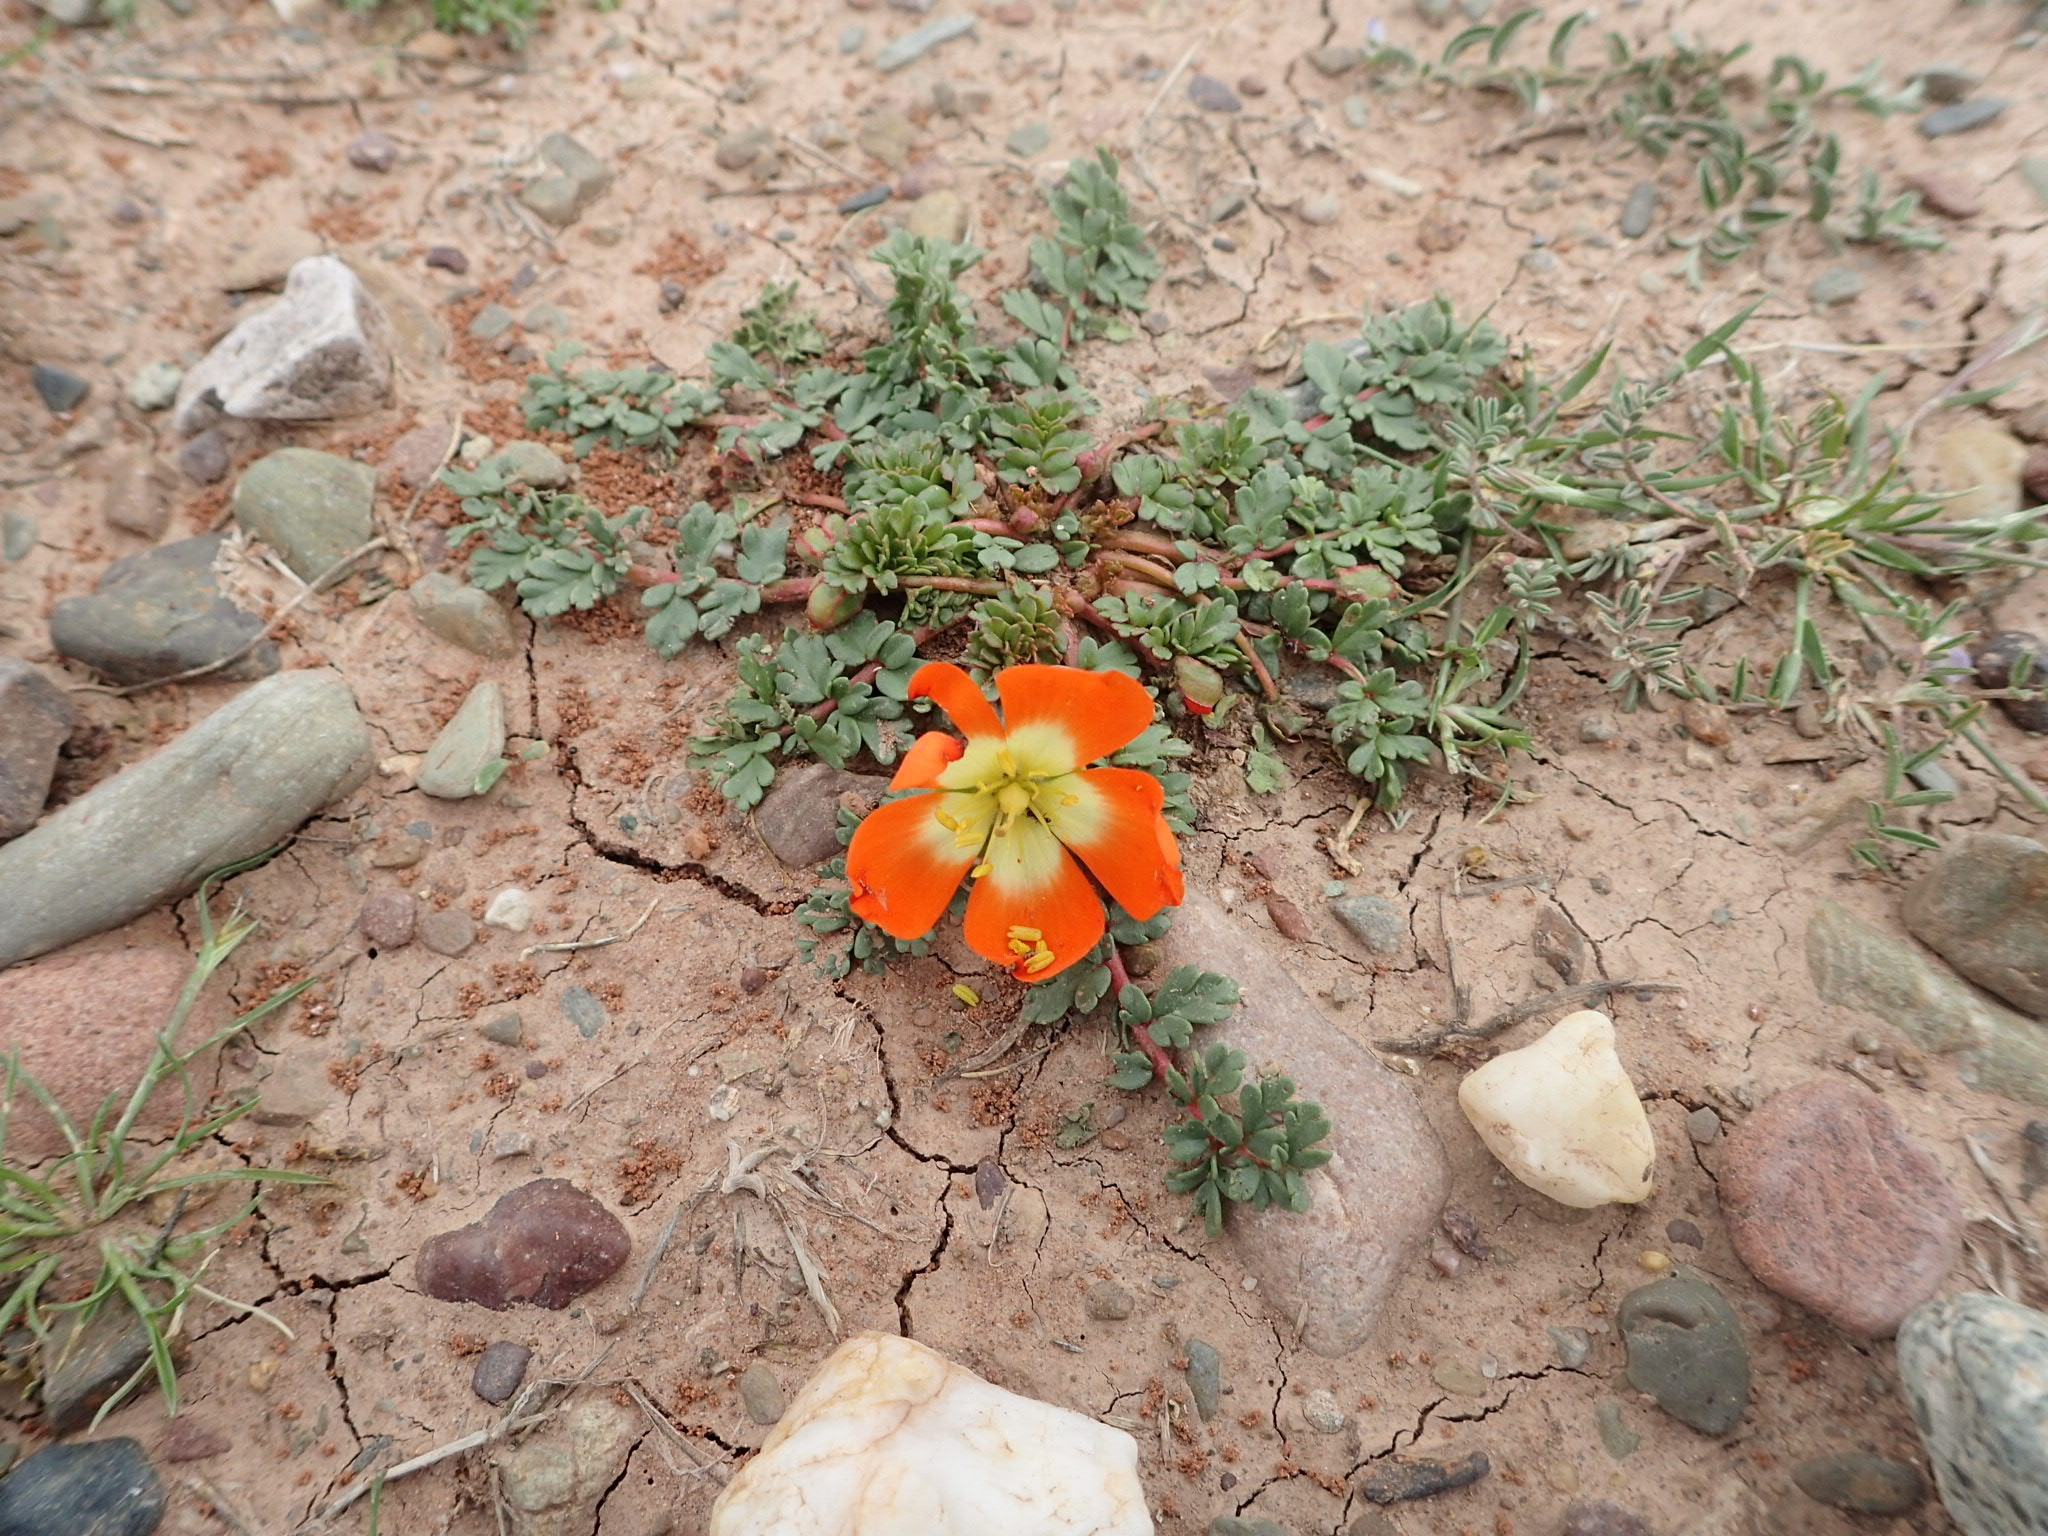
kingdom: Plantae
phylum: Tracheophyta
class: Magnoliopsida
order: Geraniales
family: Hypseocharitaceae
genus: Hypseocharis
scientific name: Hypseocharis pimpinellifolia
